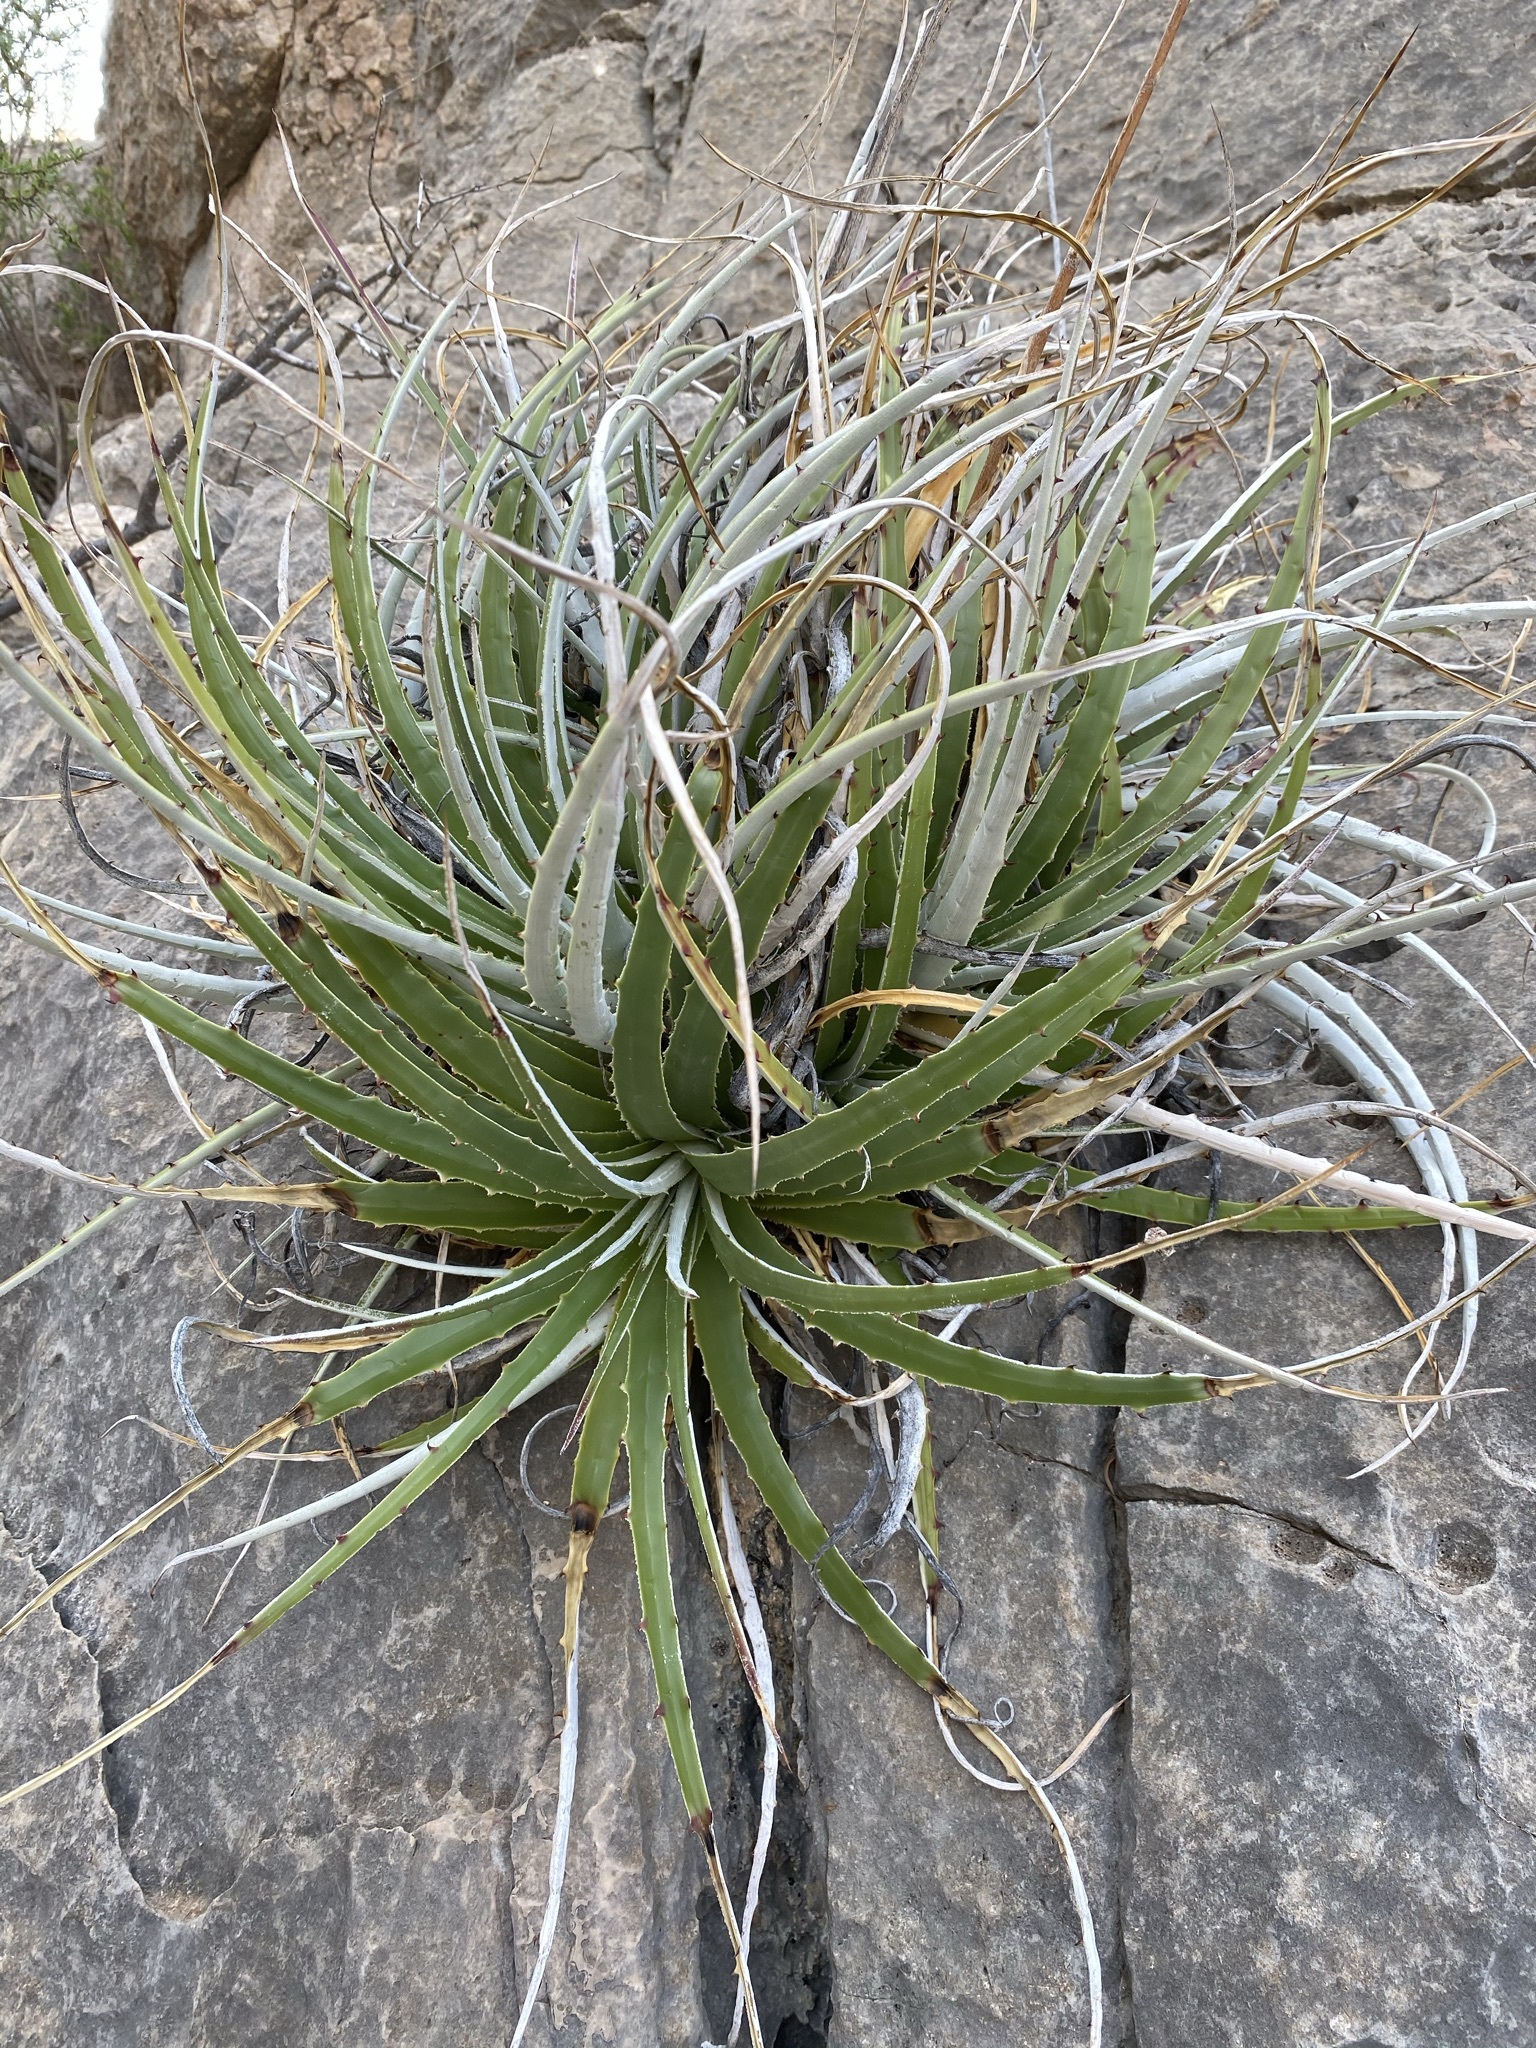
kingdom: Plantae
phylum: Tracheophyta
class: Liliopsida
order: Poales
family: Bromeliaceae
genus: Hechtia
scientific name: Hechtia texensis
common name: False agave
